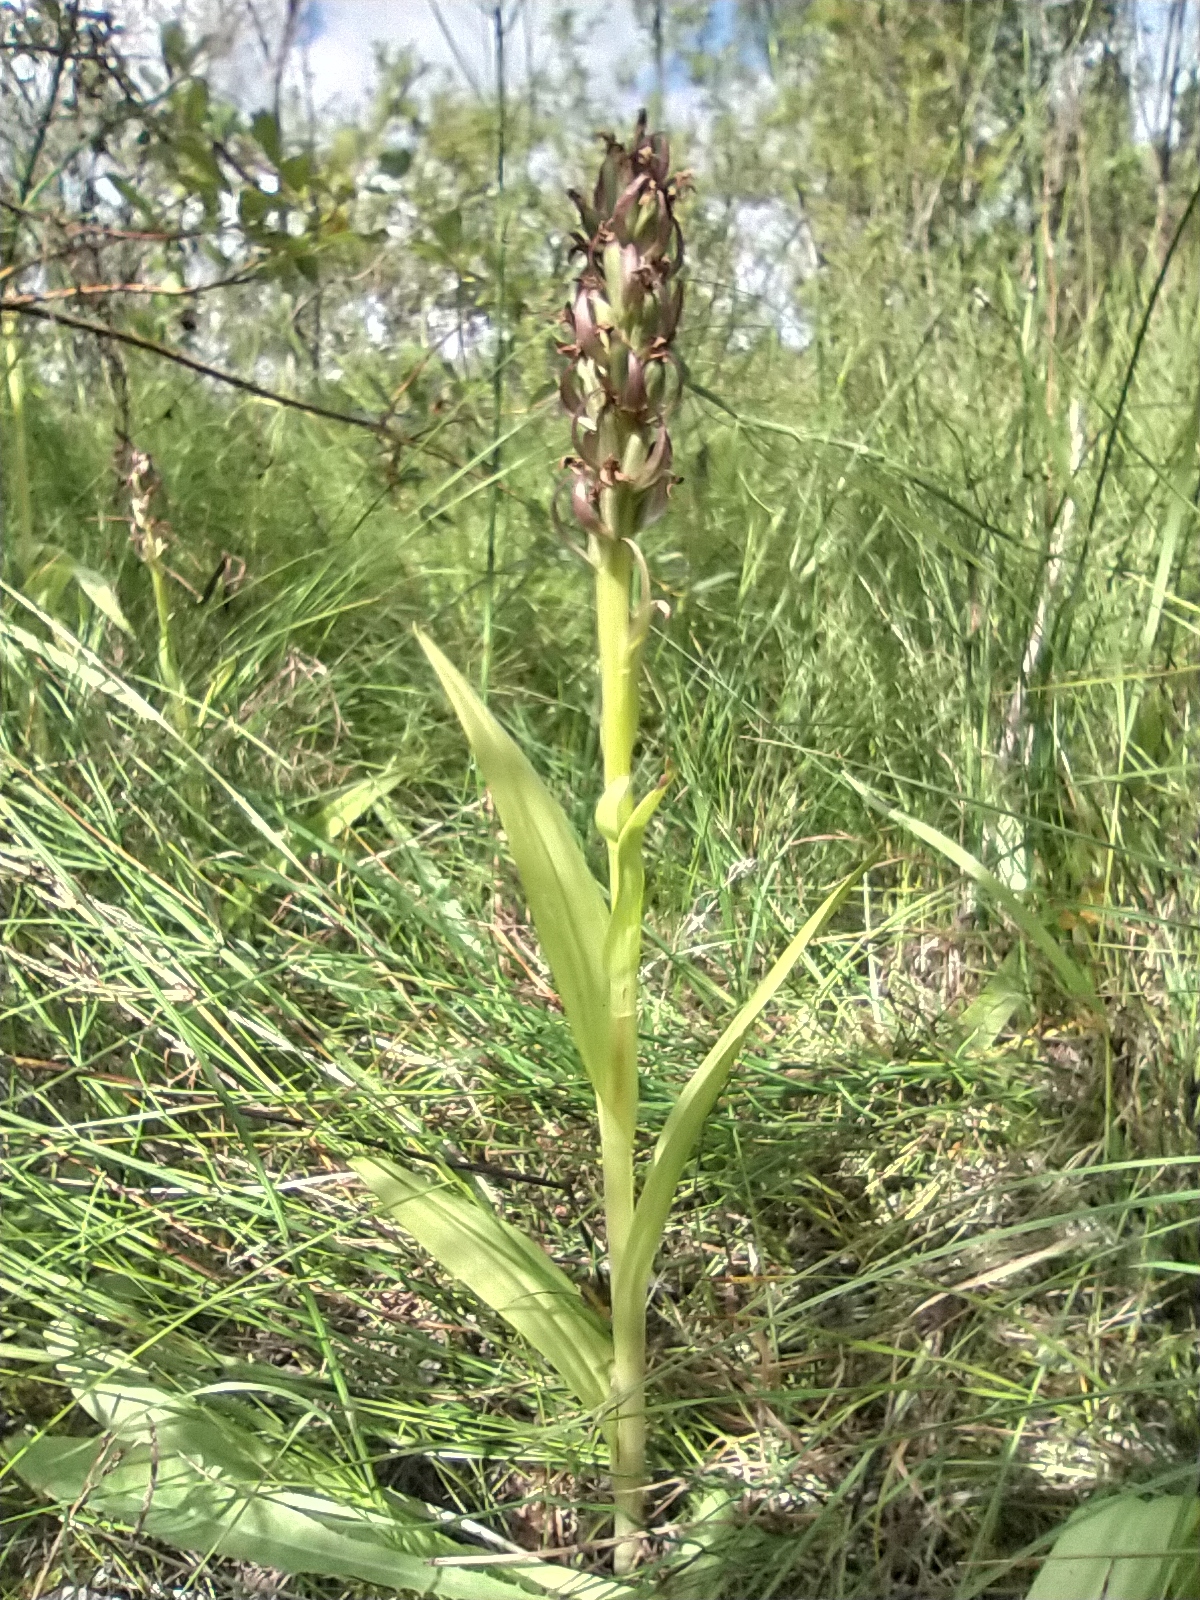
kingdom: Plantae
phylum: Tracheophyta
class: Liliopsida
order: Asparagales
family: Orchidaceae
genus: Dactylorhiza
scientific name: Dactylorhiza incarnata
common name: Early marsh-orchid
